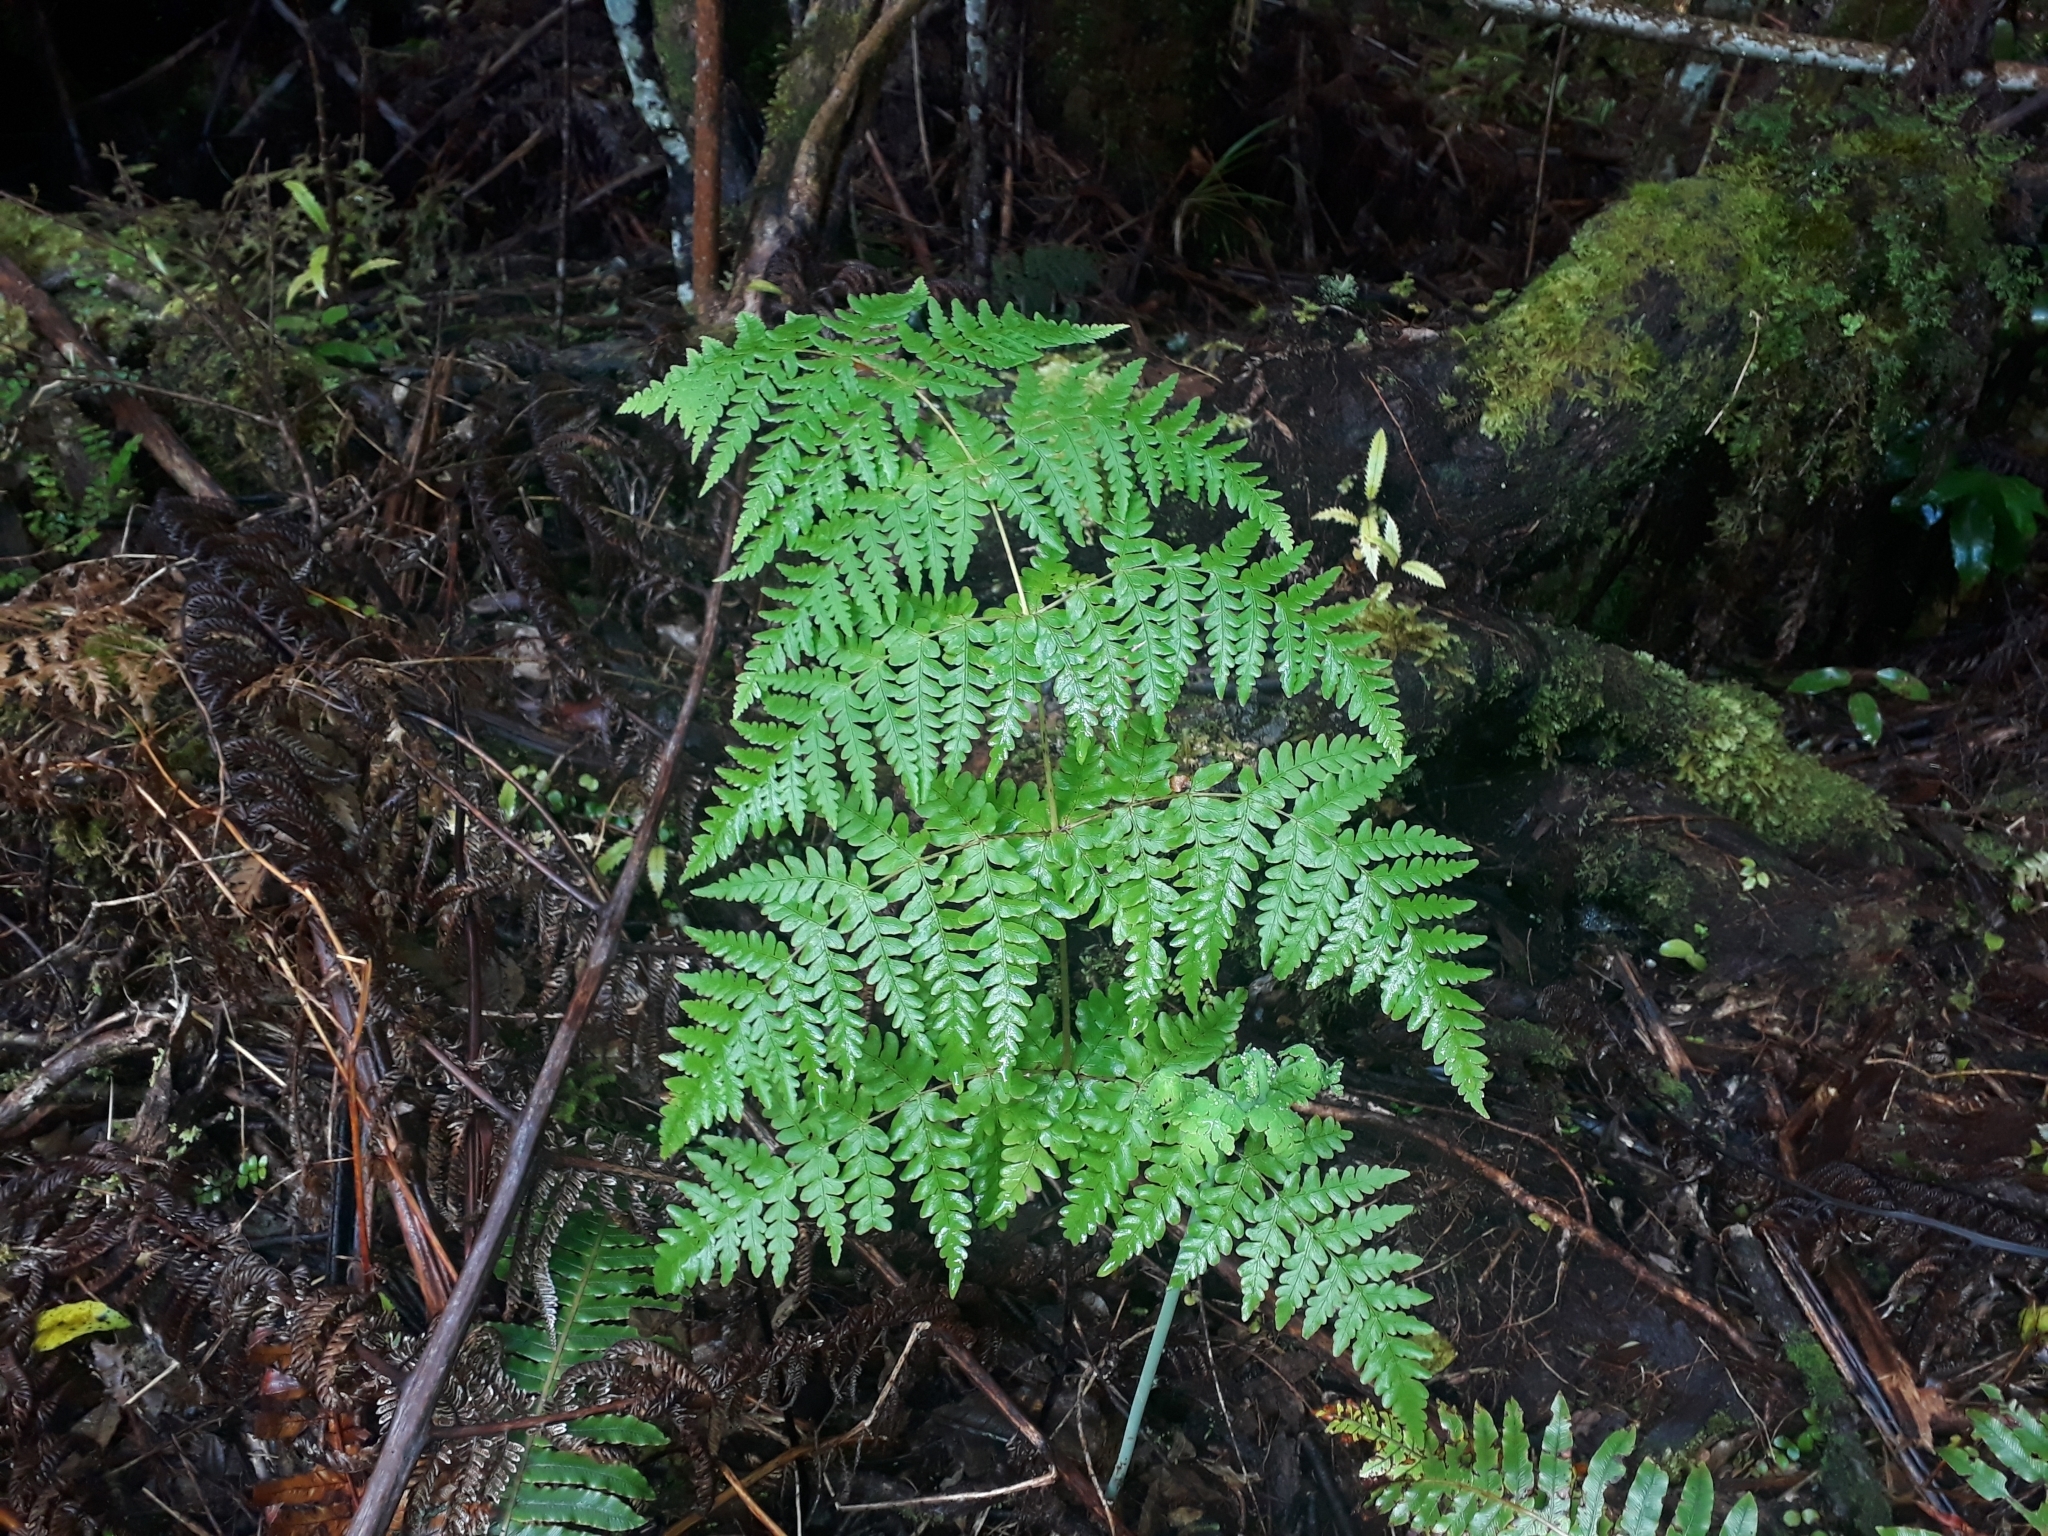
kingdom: Plantae
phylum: Tracheophyta
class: Polypodiopsida
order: Polypodiales
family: Dennstaedtiaceae
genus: Histiopteris
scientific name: Histiopteris incisa
